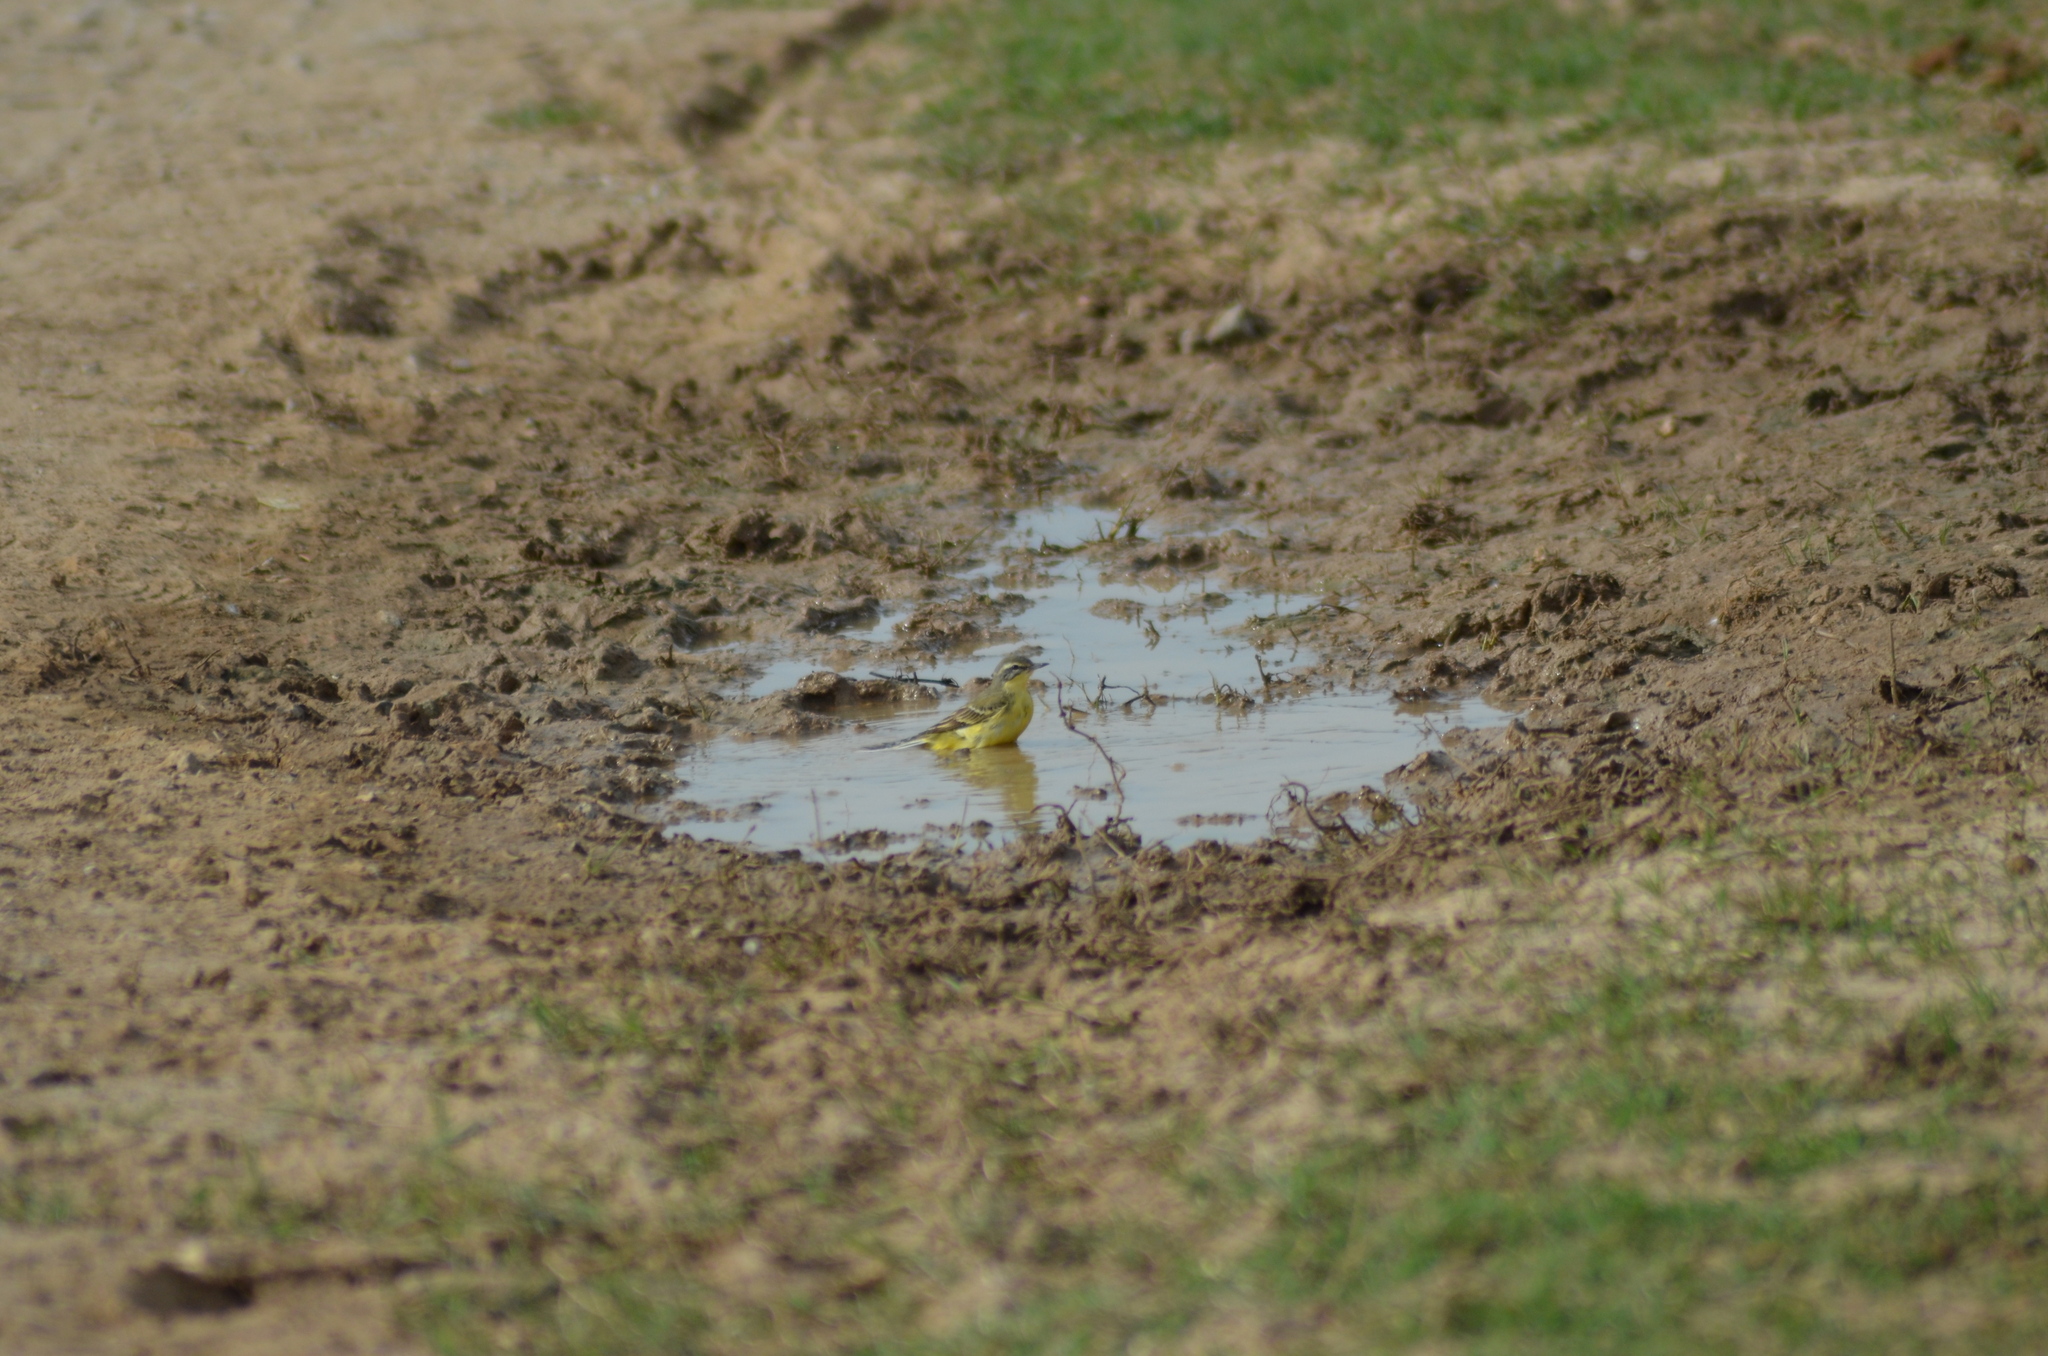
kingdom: Animalia
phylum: Chordata
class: Aves
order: Passeriformes
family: Motacillidae
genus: Motacilla
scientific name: Motacilla flava
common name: Western yellow wagtail
